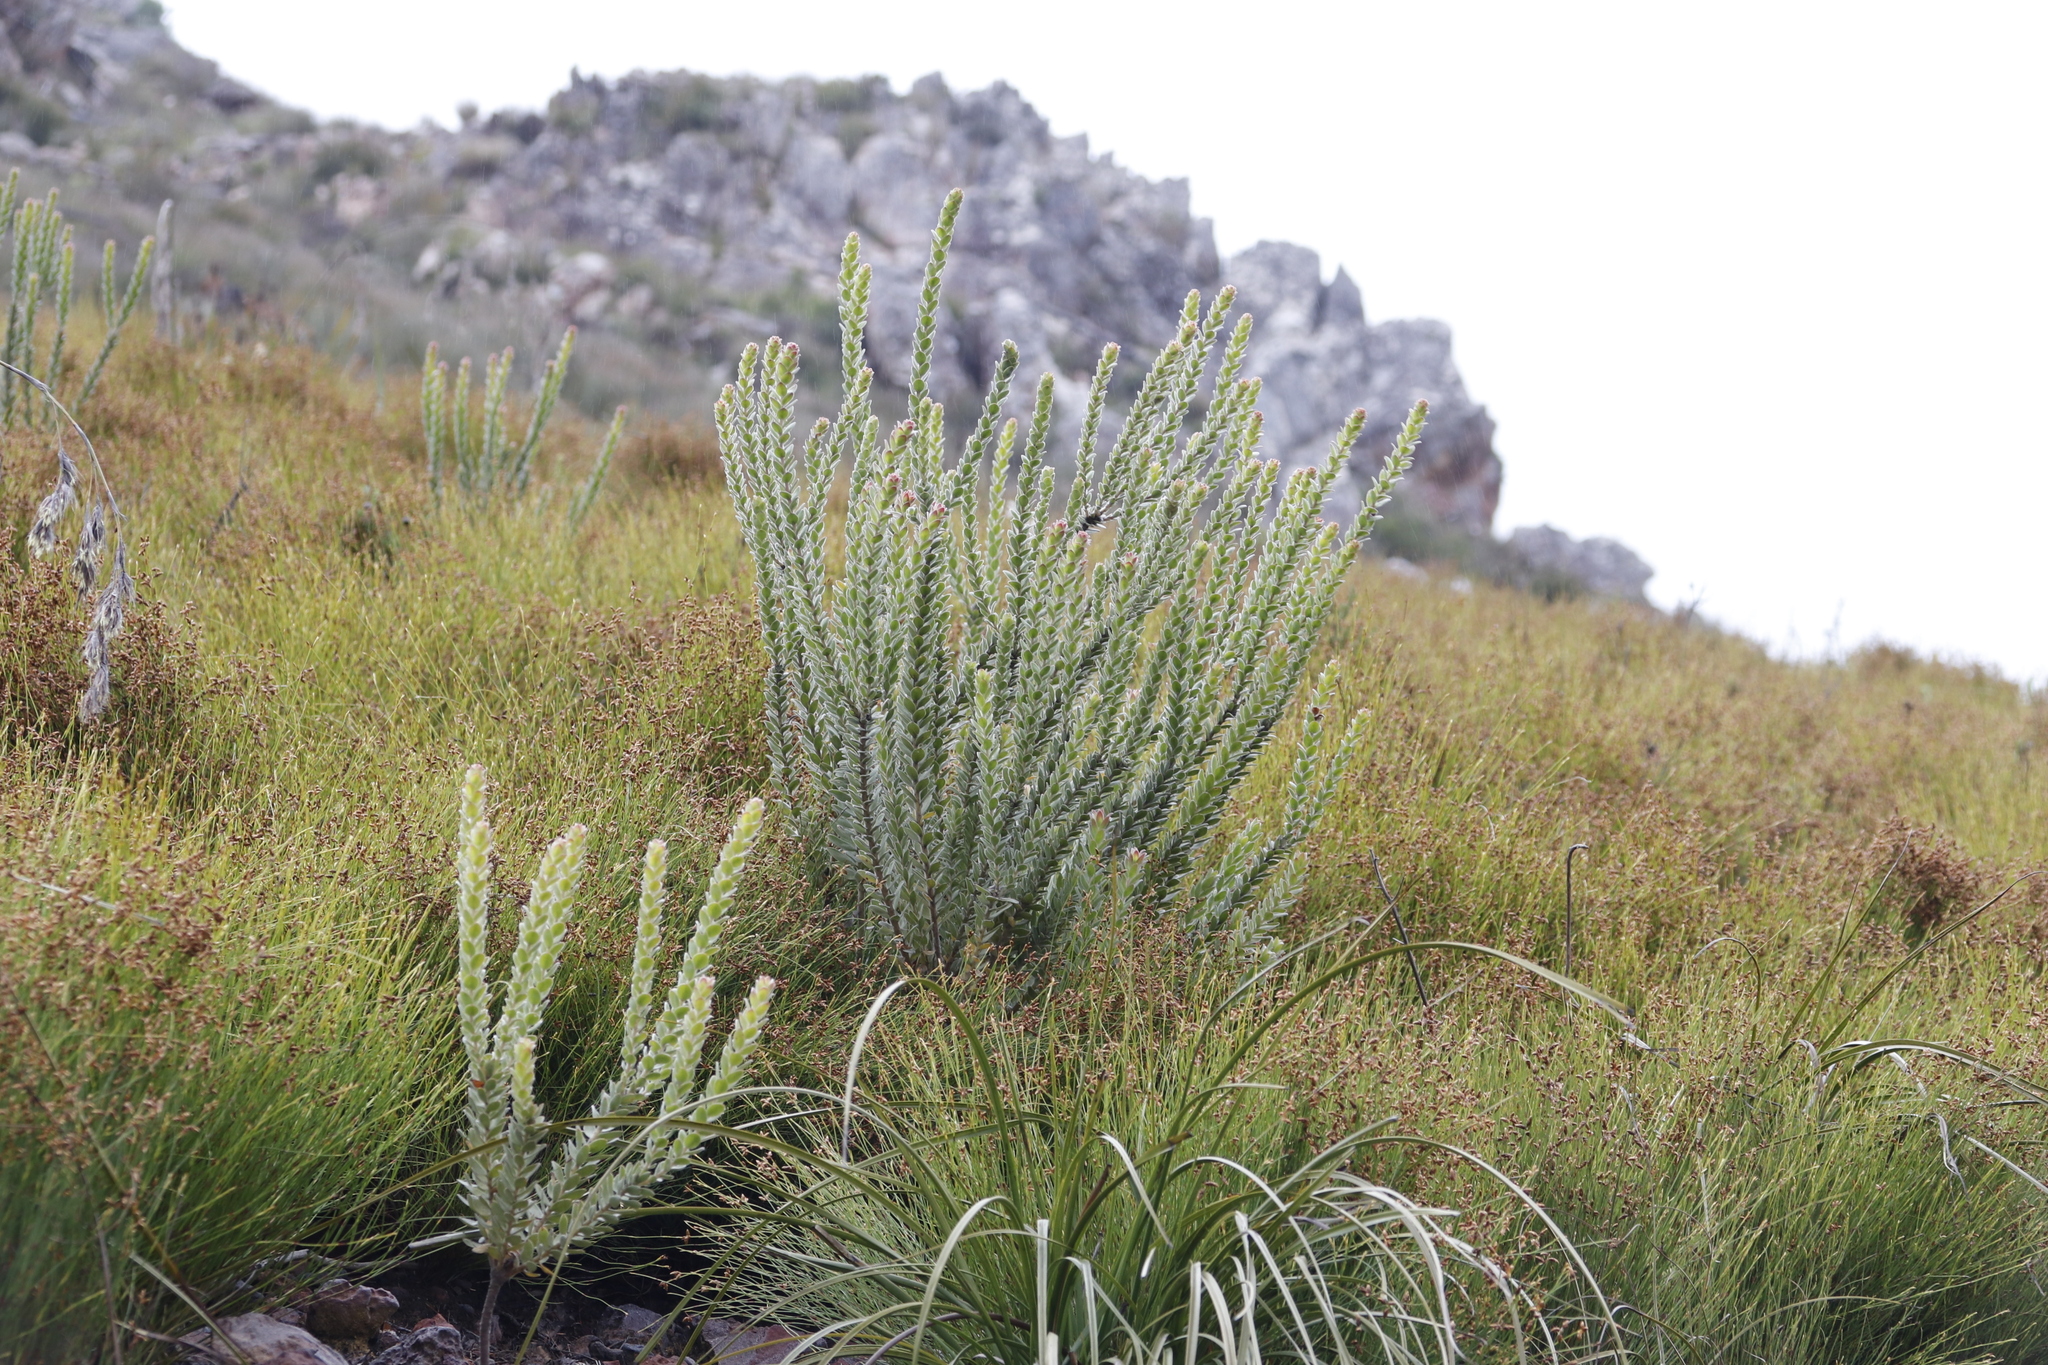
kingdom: Plantae
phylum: Tracheophyta
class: Magnoliopsida
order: Proteales
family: Proteaceae
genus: Leucospermum
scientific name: Leucospermum truncatulum
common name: Oval-leaf pincushion
